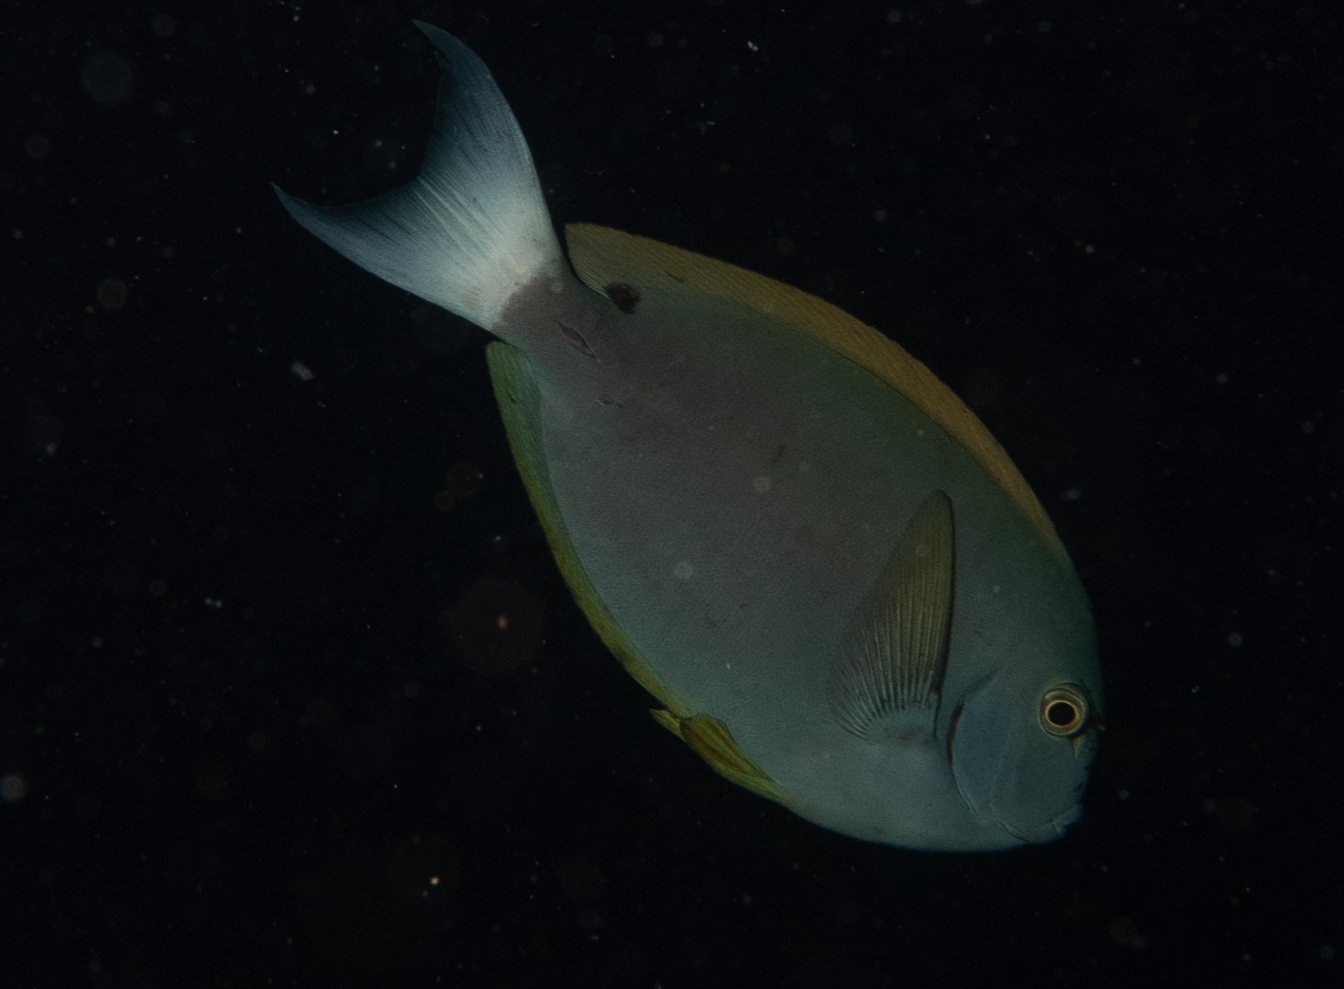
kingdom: Animalia
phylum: Chordata
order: Perciformes
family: Acanthuridae
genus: Acanthurus
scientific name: Acanthurus thompsoni
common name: Chocolate surgeonfish
